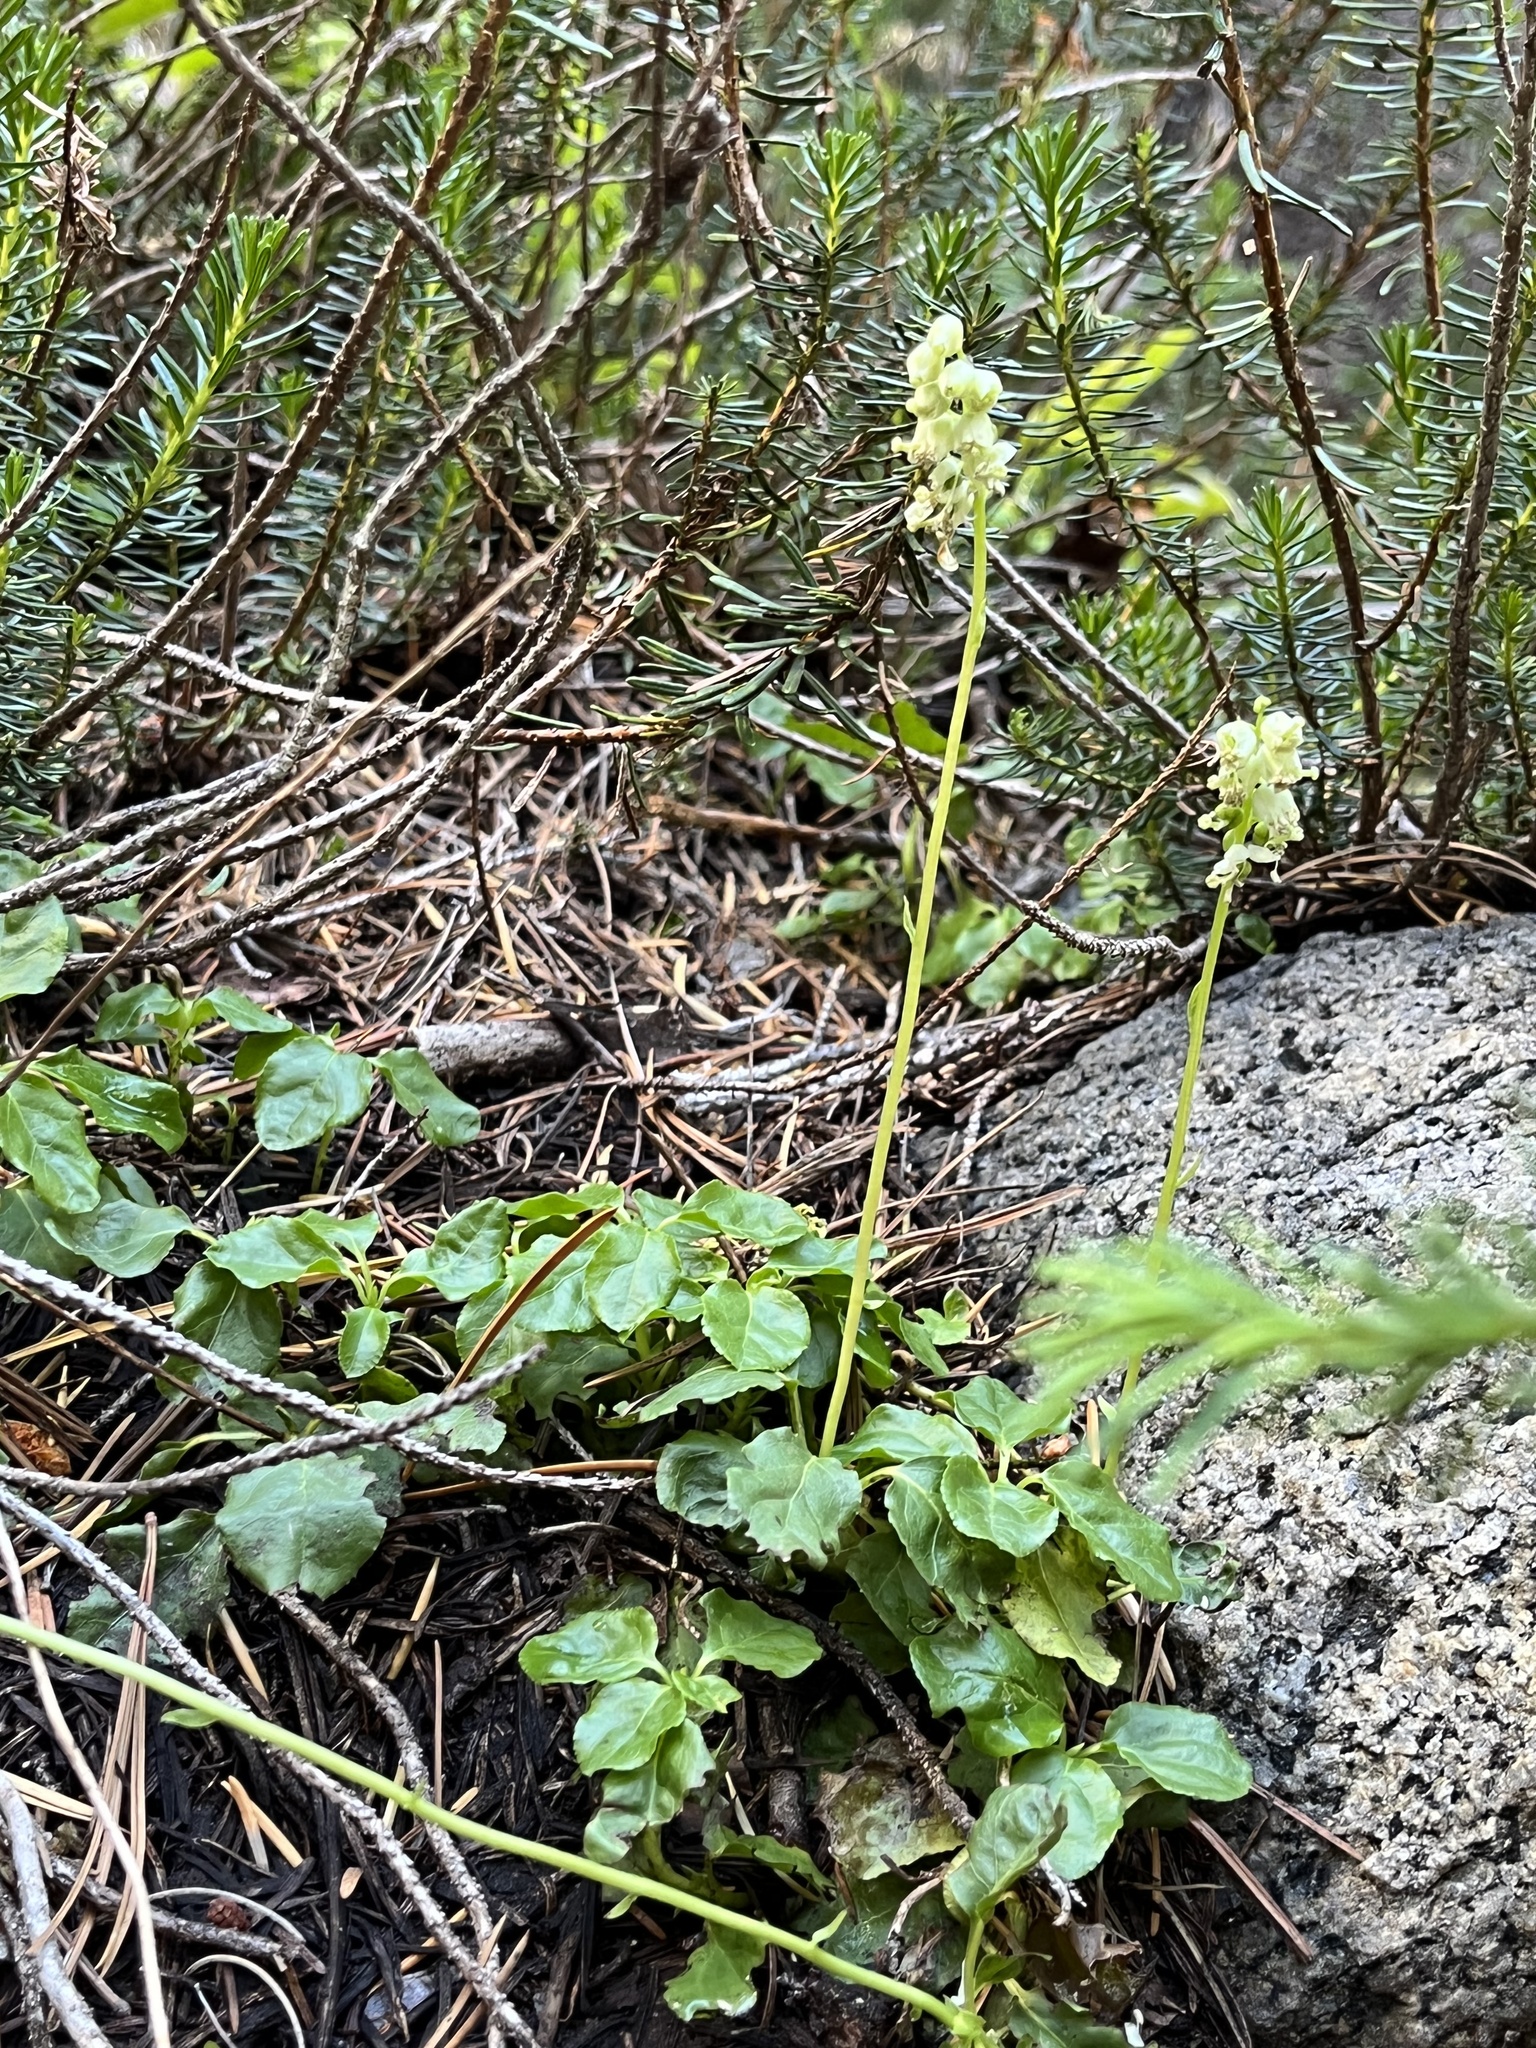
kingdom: Plantae
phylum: Tracheophyta
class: Magnoliopsida
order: Ericales
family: Ericaceae
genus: Orthilia
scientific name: Orthilia secunda
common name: One-sided orthilia
